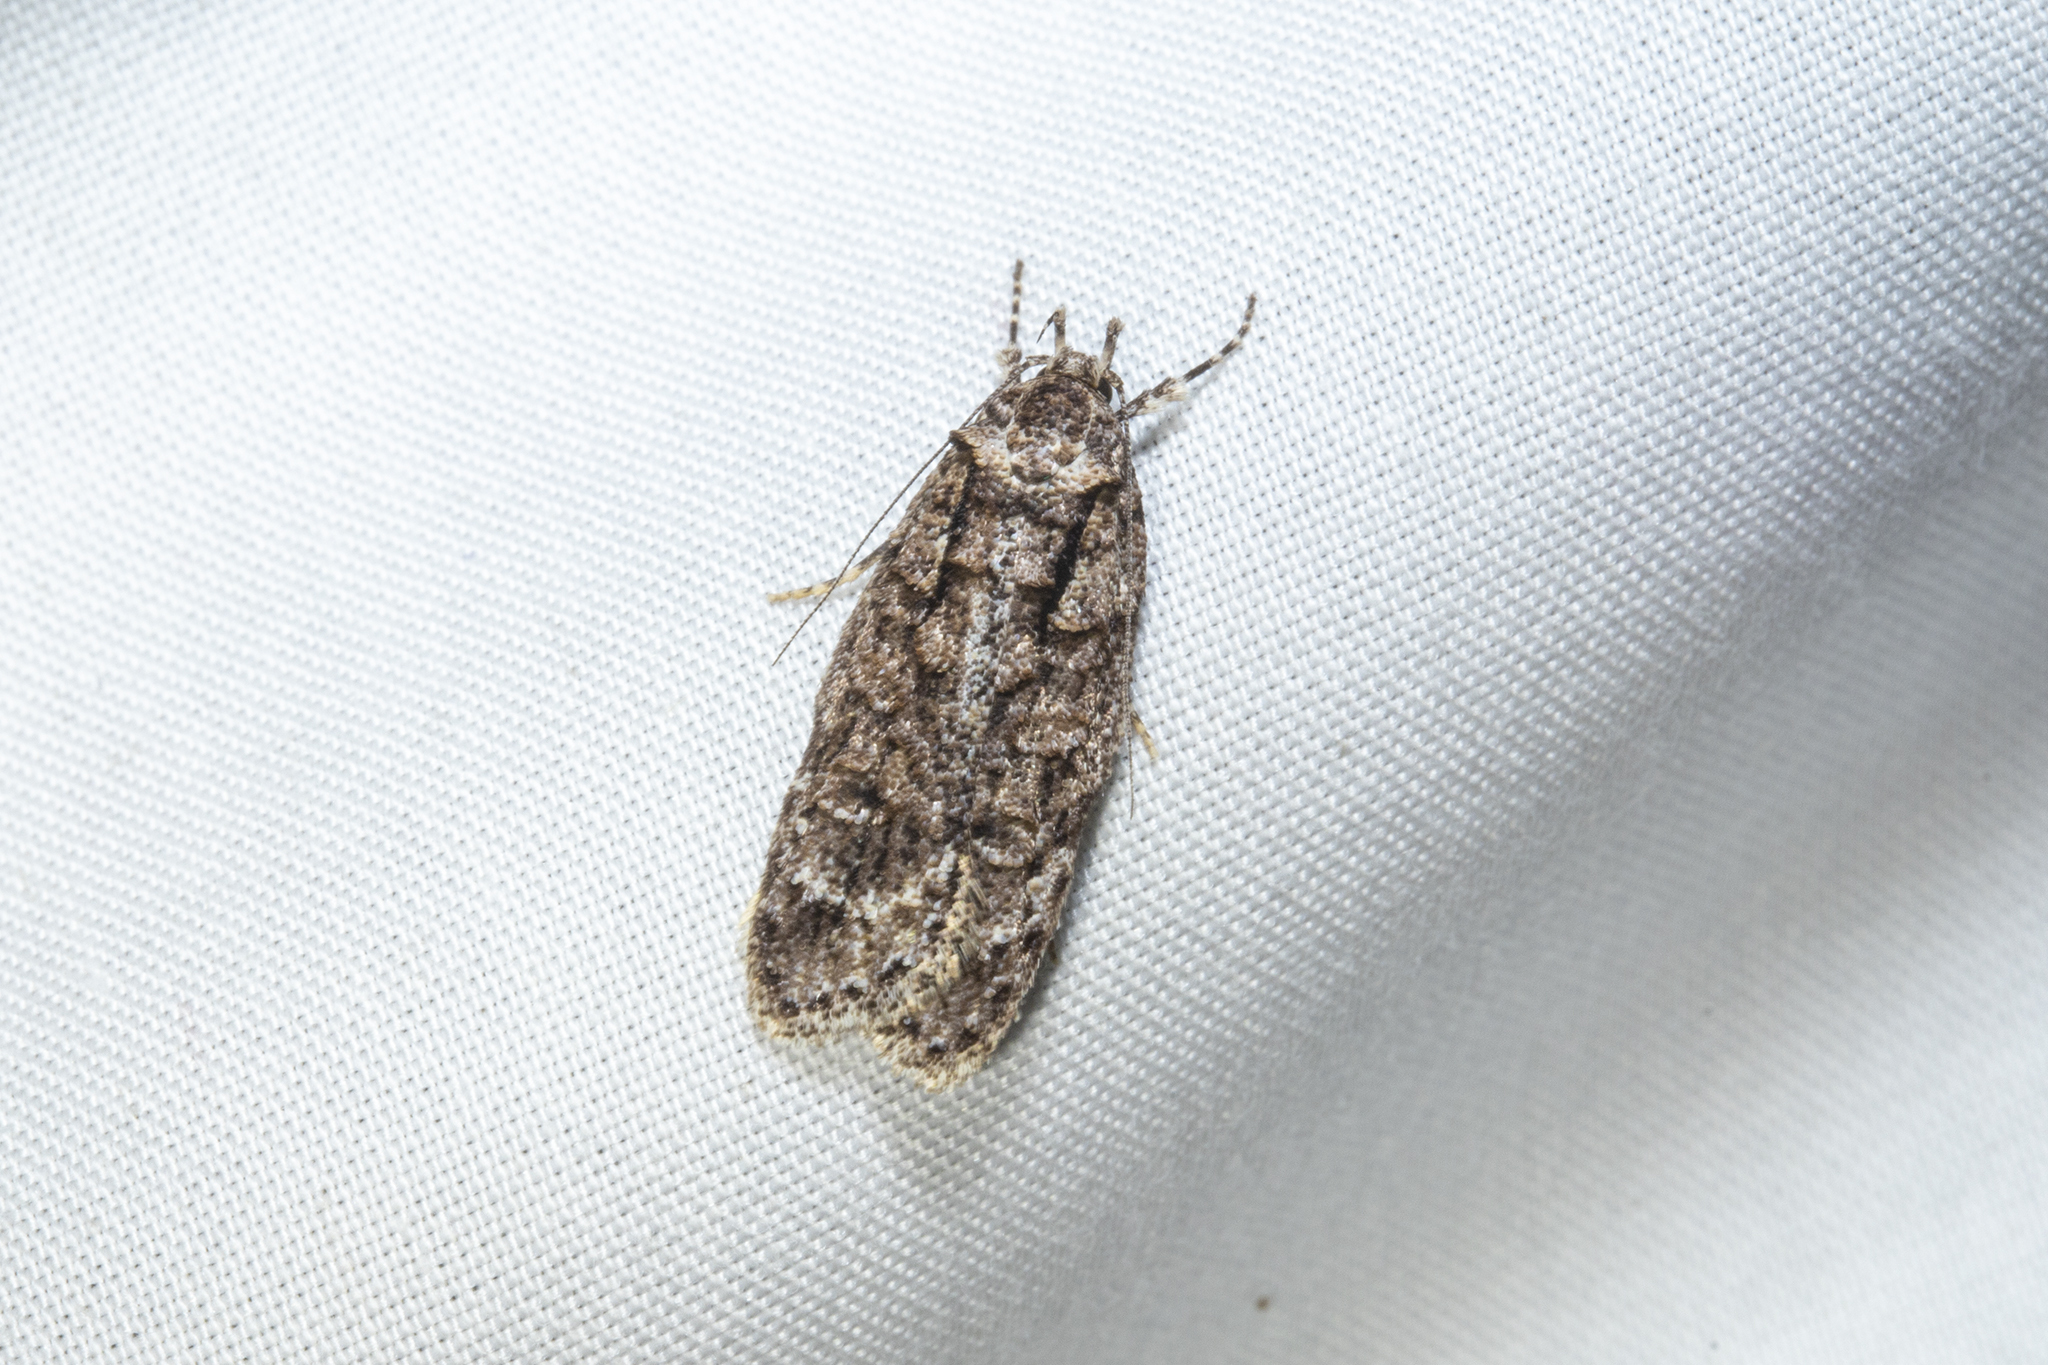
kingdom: Animalia
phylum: Arthropoda
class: Insecta
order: Lepidoptera
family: Oecophoridae
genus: Izatha
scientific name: Izatha attactella
